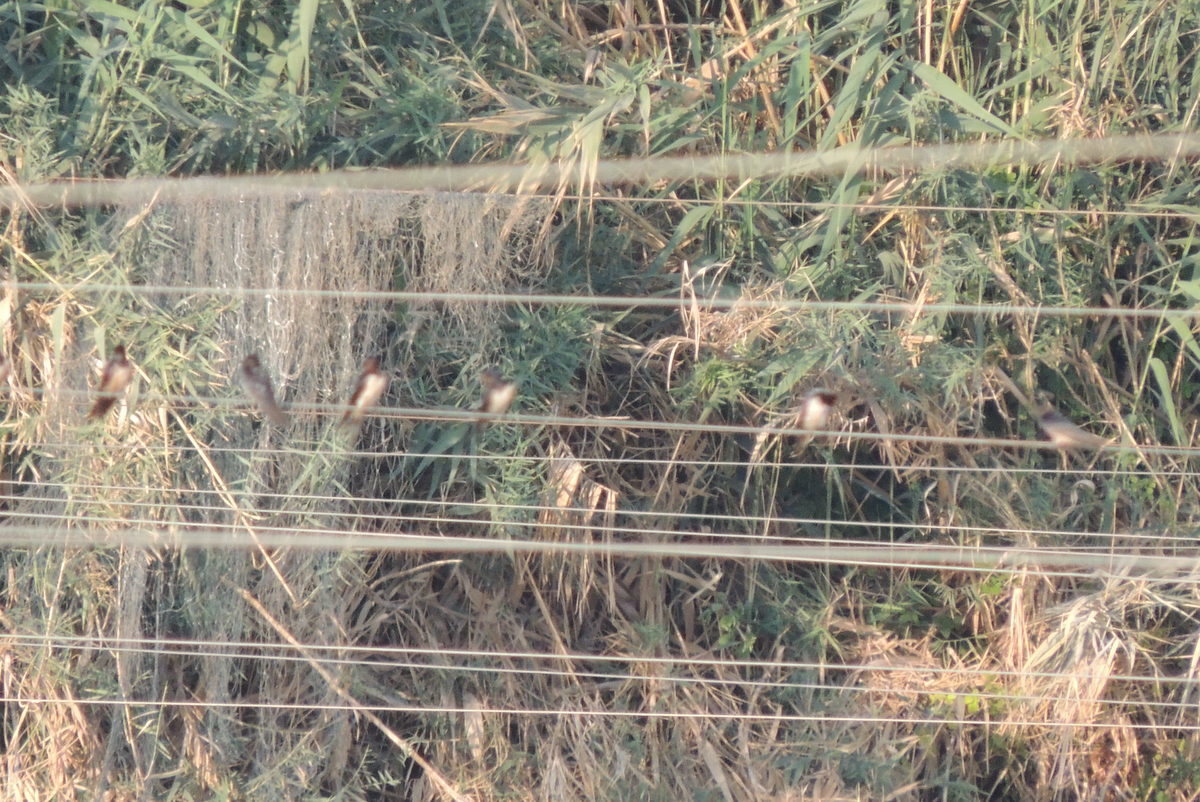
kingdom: Animalia
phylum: Chordata
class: Aves
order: Passeriformes
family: Hirundinidae
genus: Hirundo
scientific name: Hirundo rustica
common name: Barn swallow
